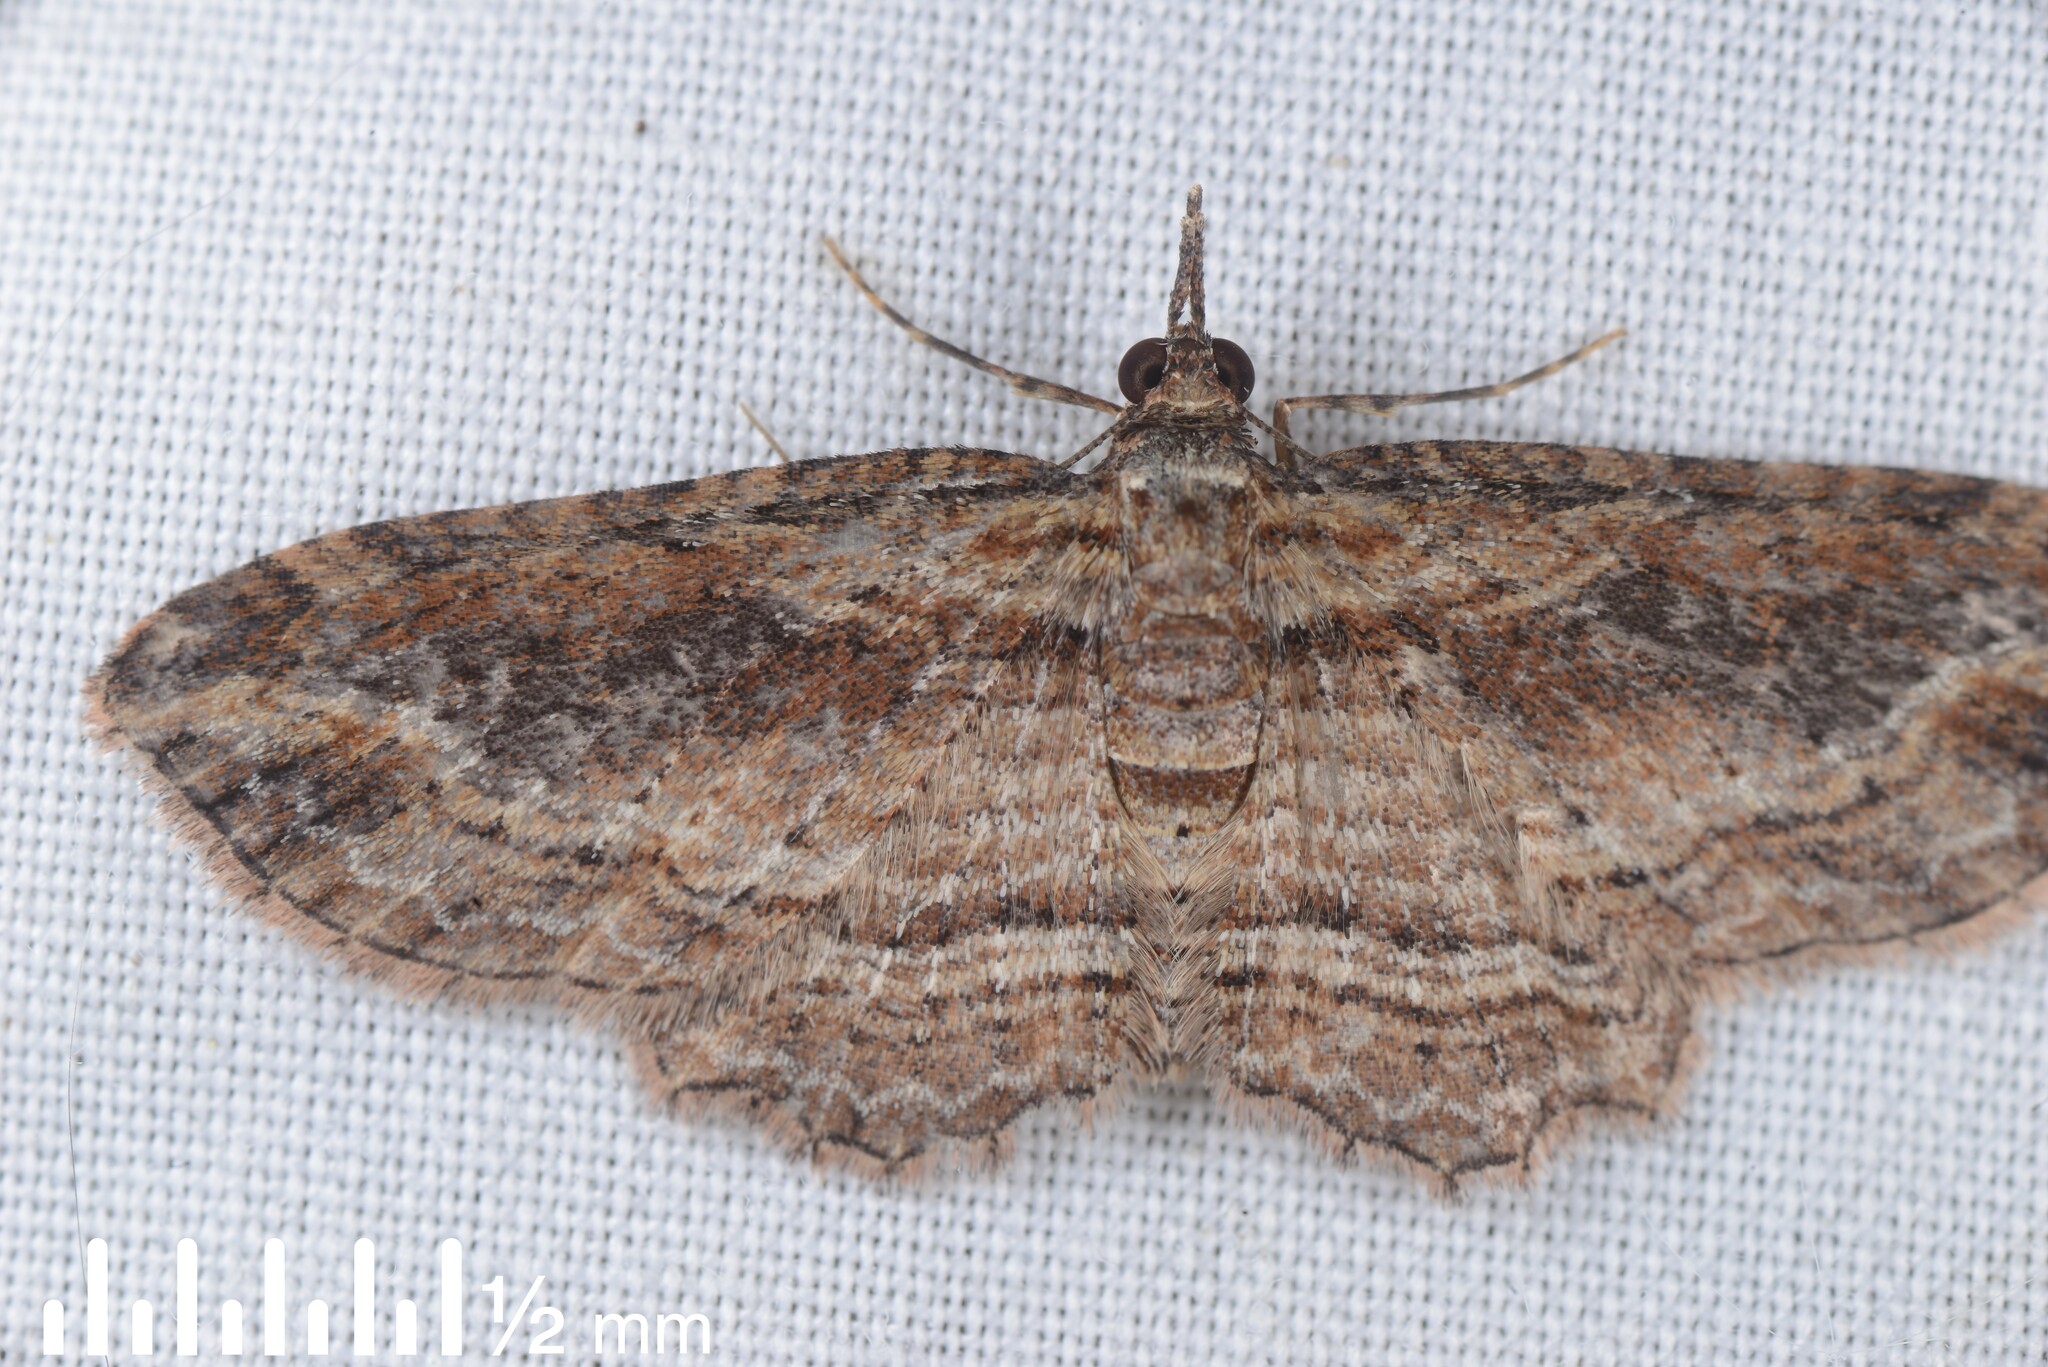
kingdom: Animalia
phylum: Arthropoda
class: Insecta
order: Lepidoptera
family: Geometridae
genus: Chloroclystis
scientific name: Chloroclystis filata
